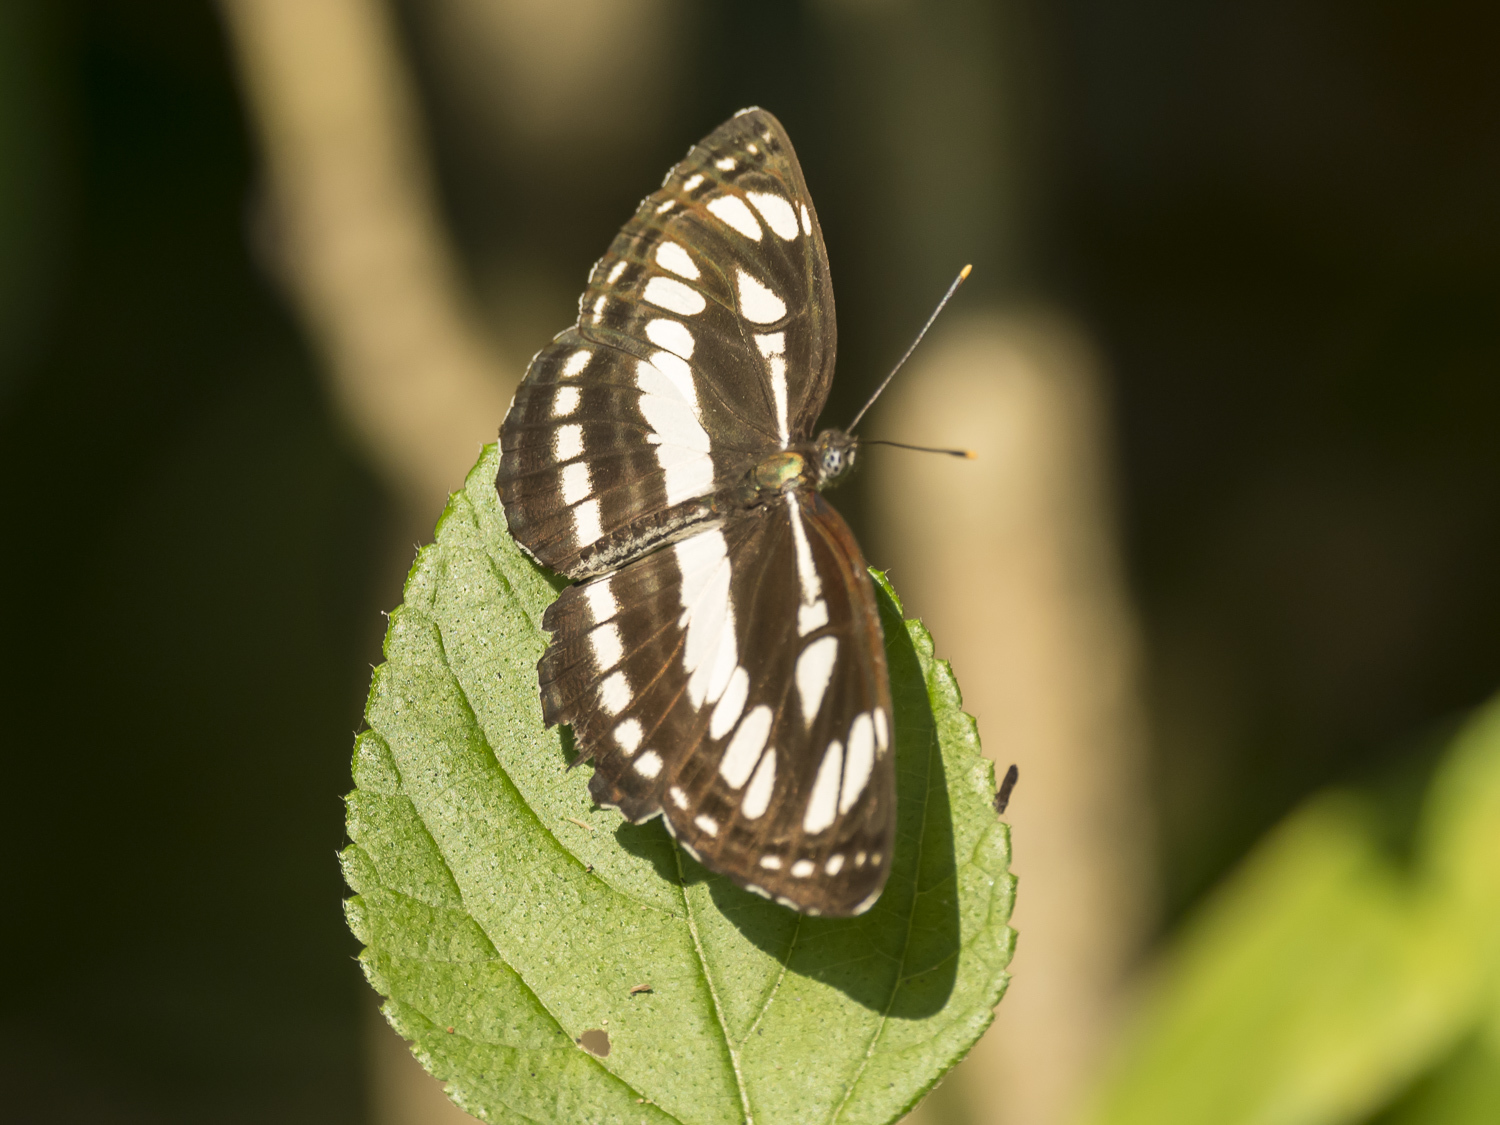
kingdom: Animalia
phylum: Arthropoda
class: Insecta
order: Lepidoptera
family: Nymphalidae
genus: Neptis
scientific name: Neptis hylas
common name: Common sailer
